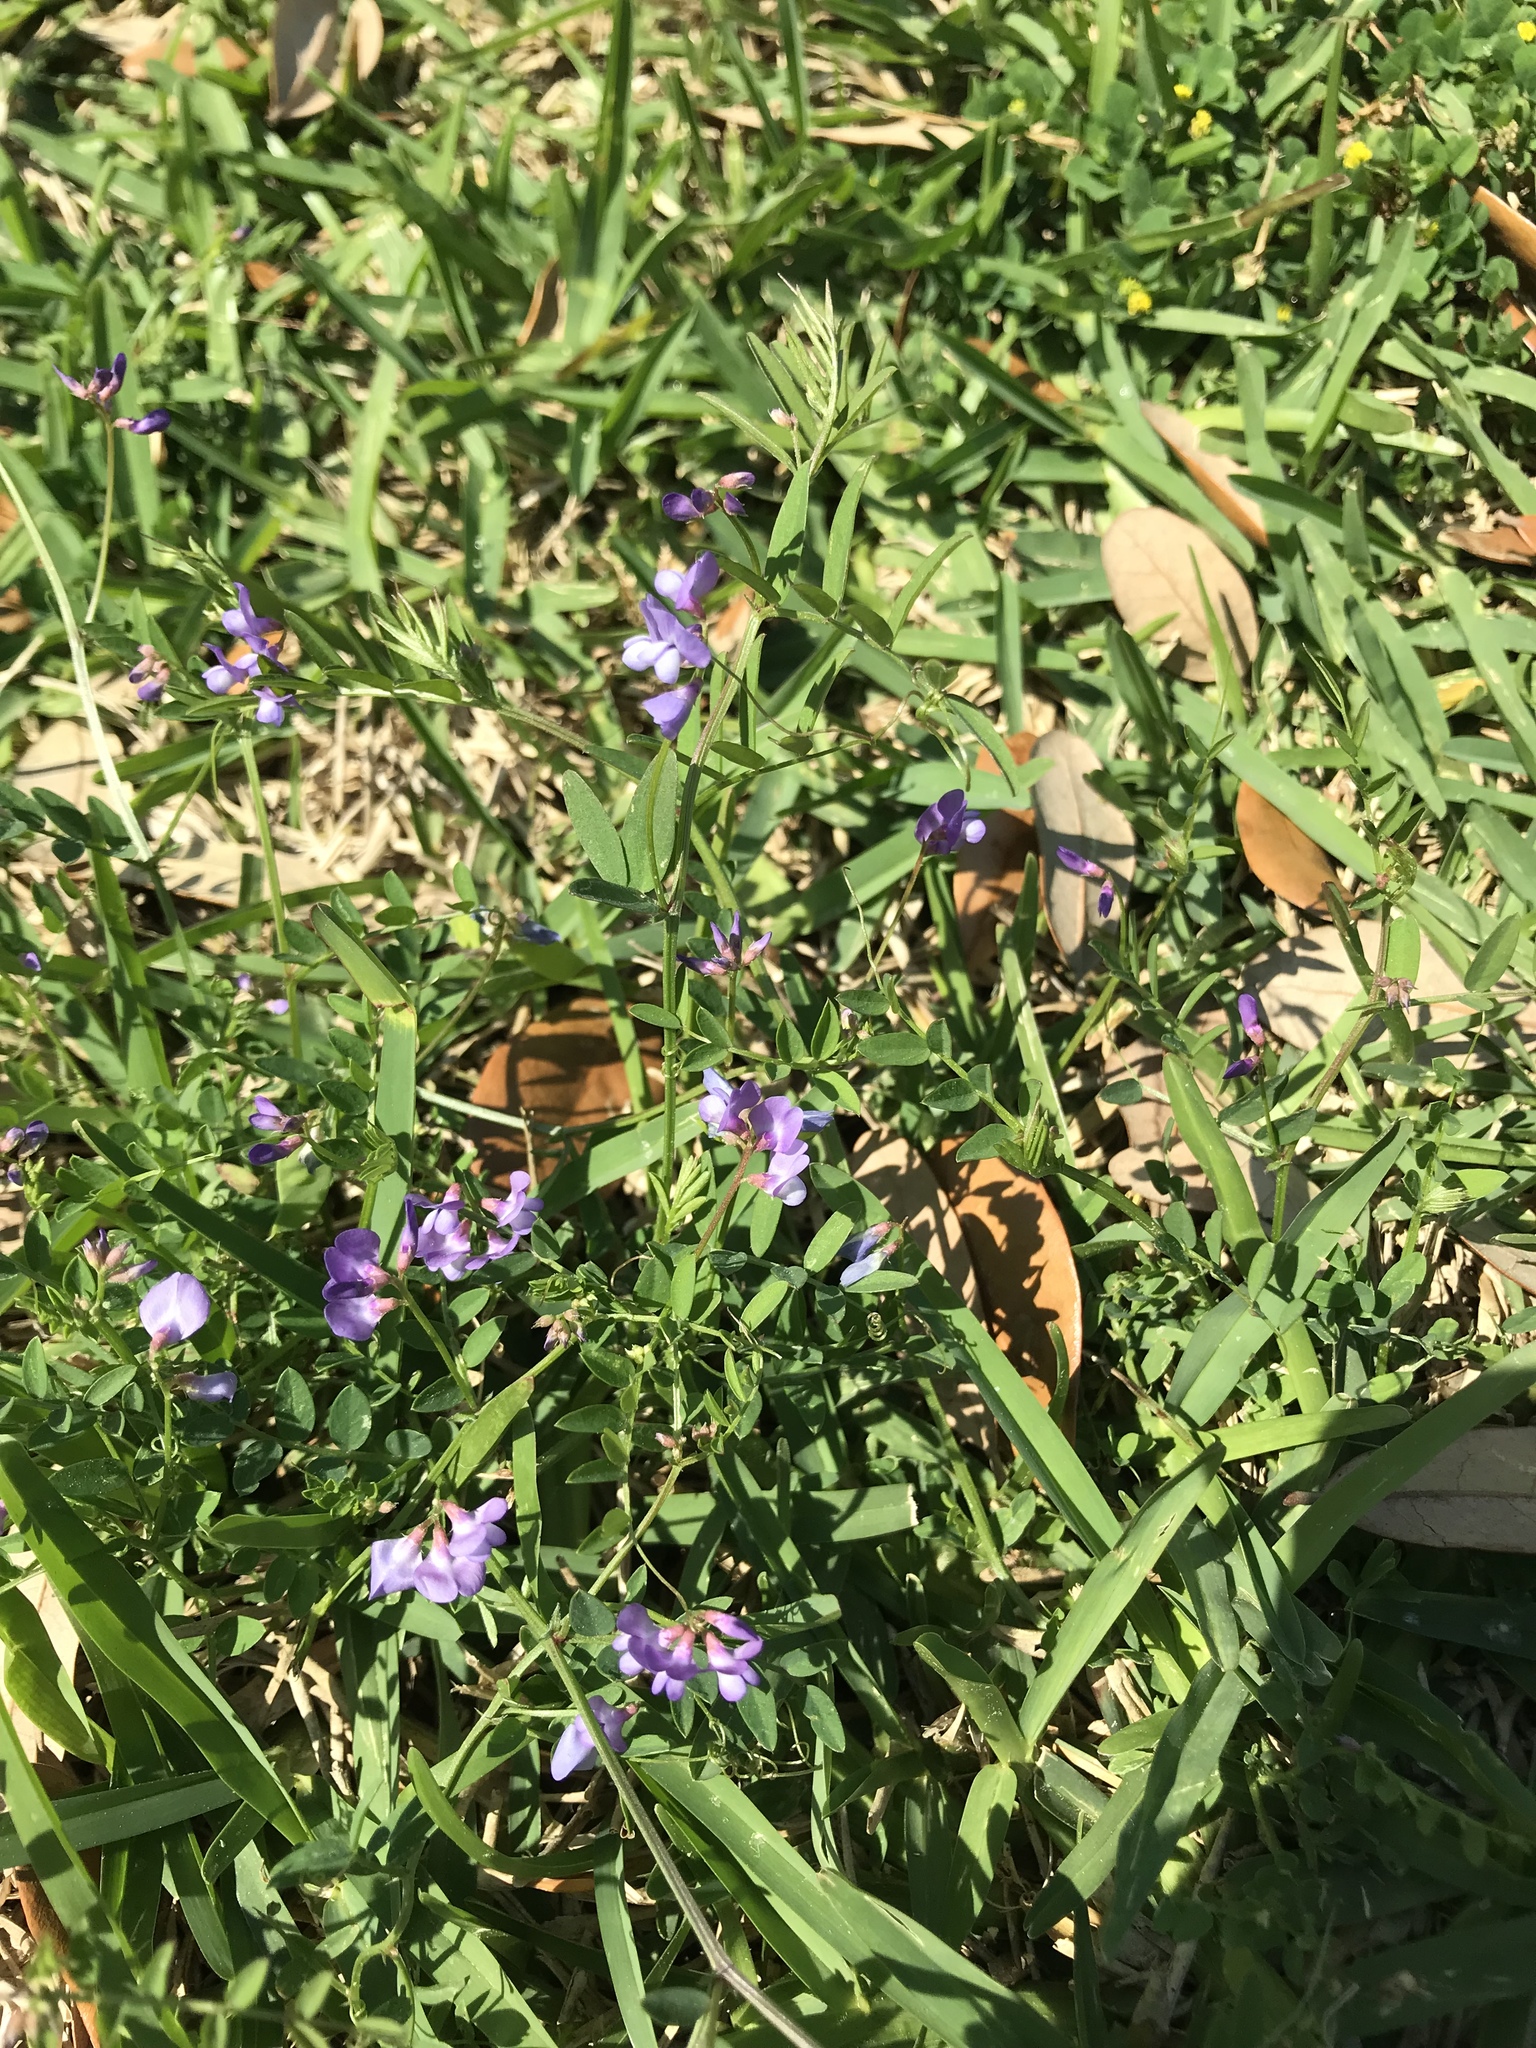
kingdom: Plantae
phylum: Tracheophyta
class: Magnoliopsida
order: Fabales
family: Fabaceae
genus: Vicia
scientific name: Vicia ludoviciana
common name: Louisiana vetch
